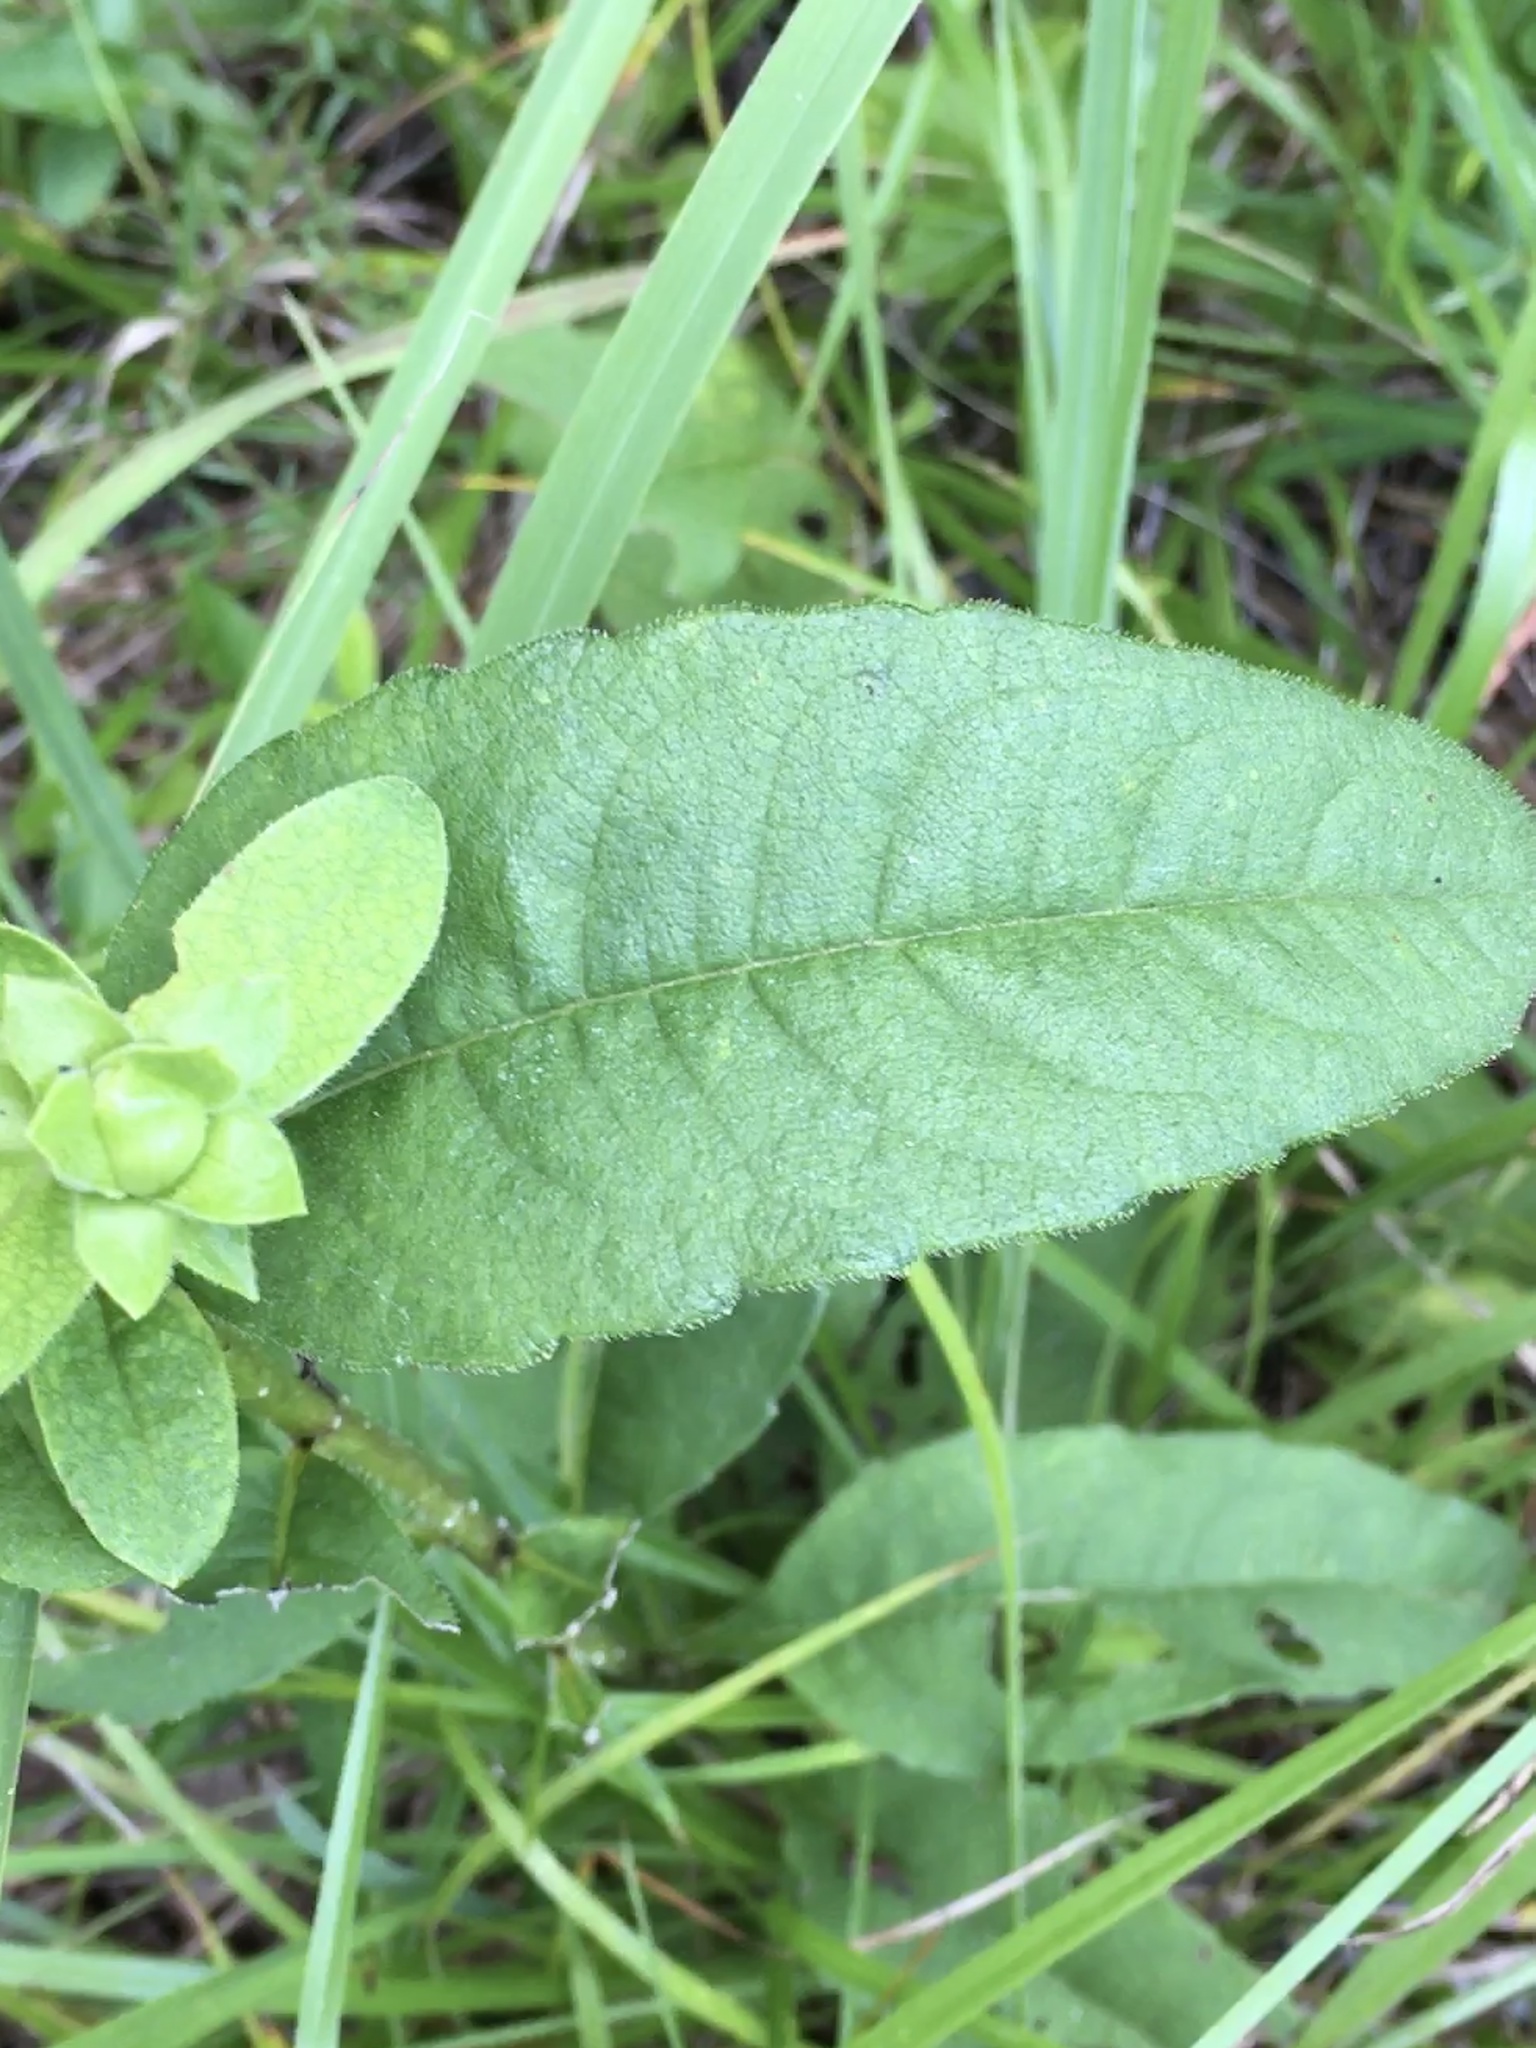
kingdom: Plantae
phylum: Tracheophyta
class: Magnoliopsida
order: Asterales
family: Asteraceae
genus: Silphium
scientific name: Silphium asteriscus
